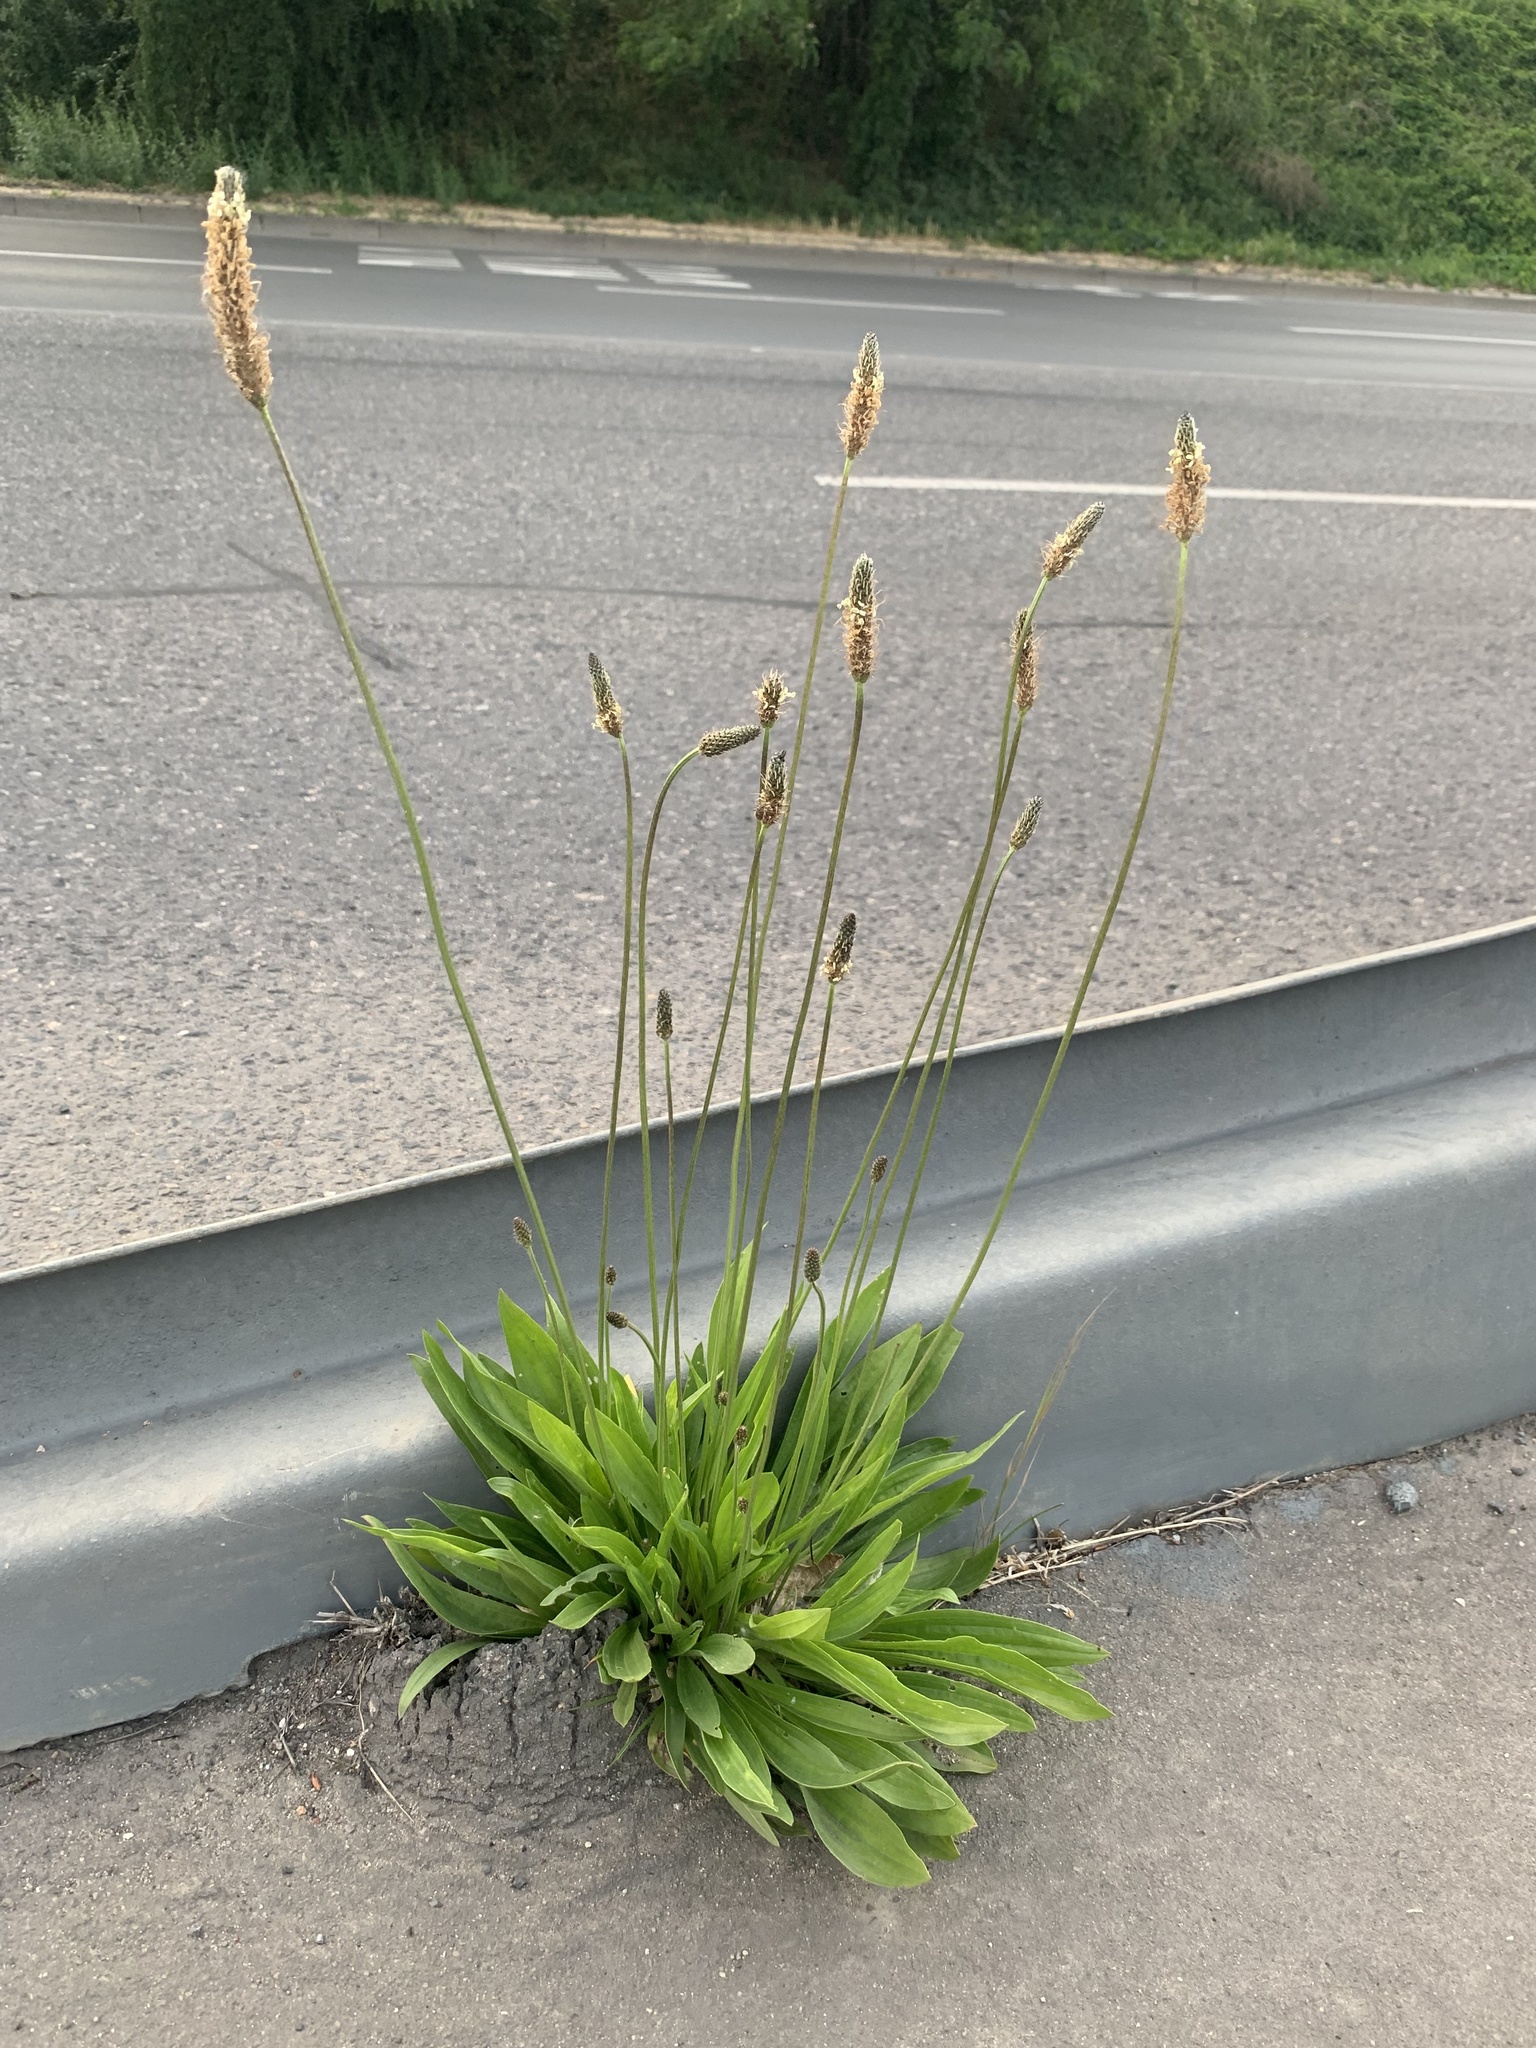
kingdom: Plantae
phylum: Tracheophyta
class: Magnoliopsida
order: Lamiales
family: Plantaginaceae
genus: Plantago
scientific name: Plantago lanceolata
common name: Ribwort plantain
